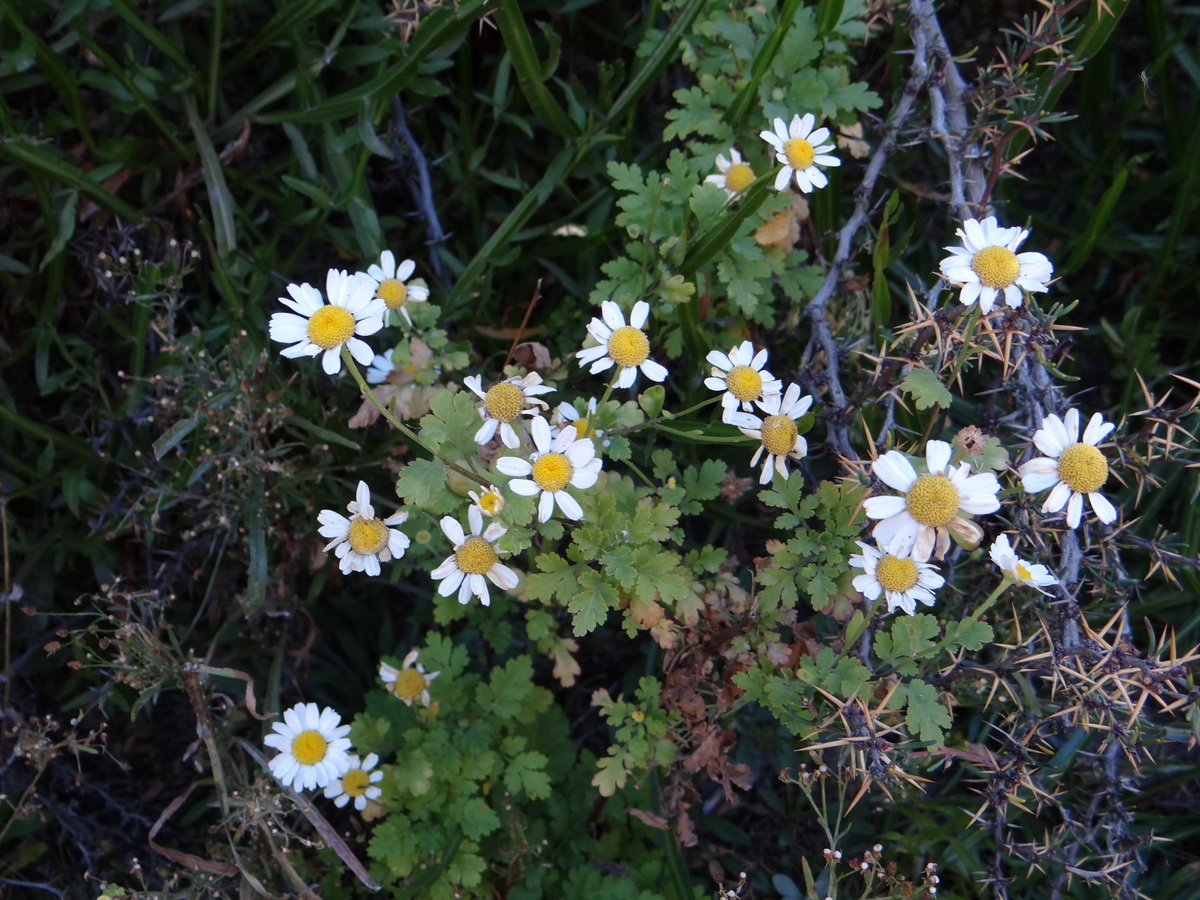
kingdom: Plantae
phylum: Tracheophyta
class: Magnoliopsida
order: Asterales
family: Asteraceae
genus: Tanacetum
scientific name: Tanacetum parthenium
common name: Feverfew
